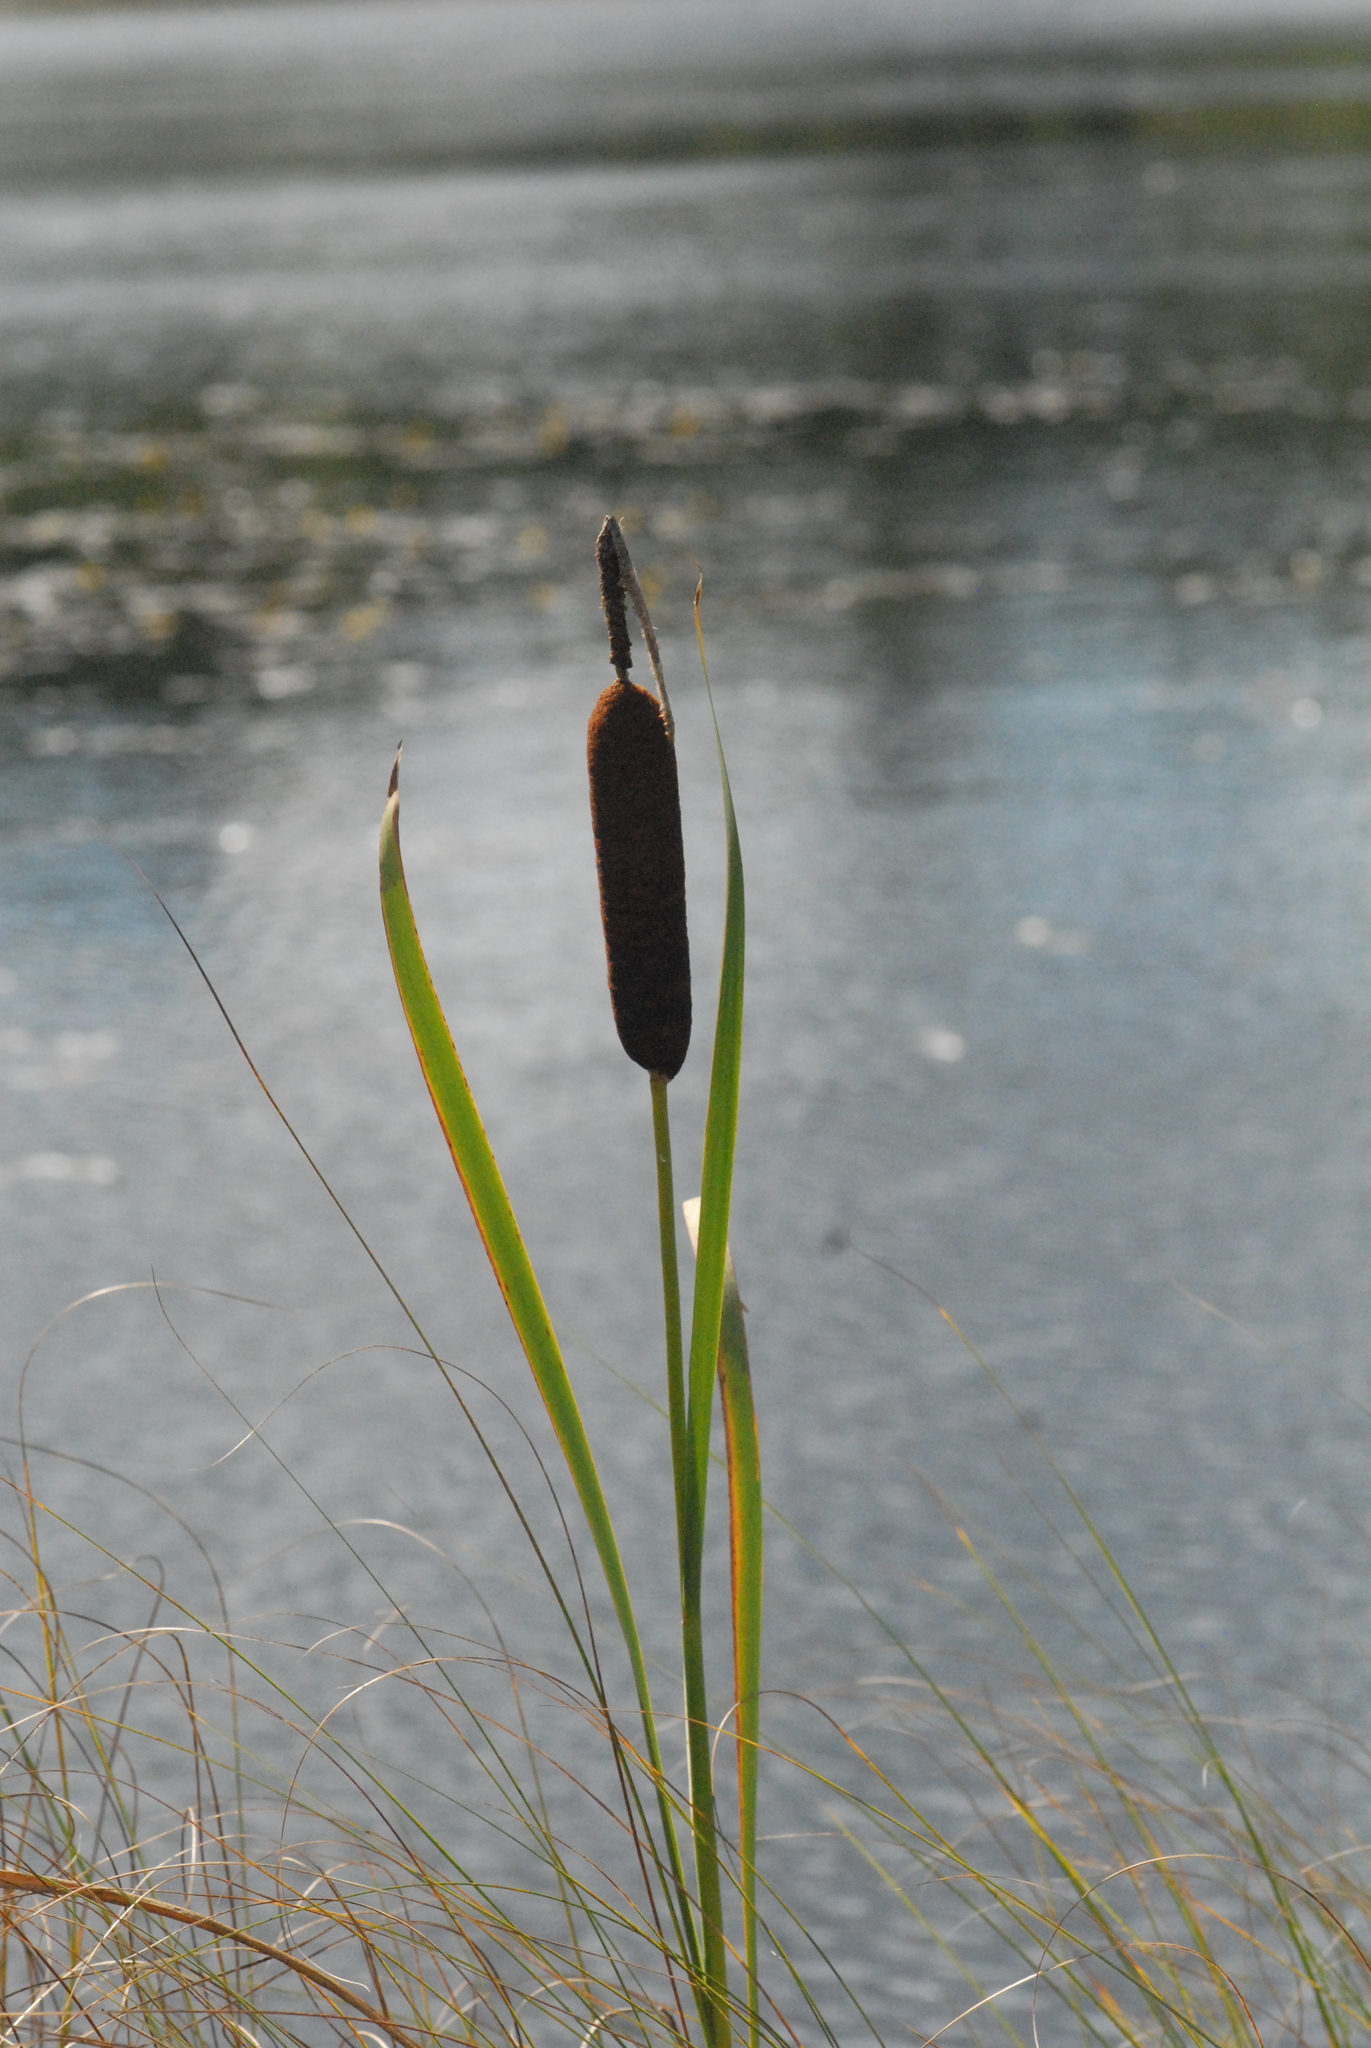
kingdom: Plantae
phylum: Tracheophyta
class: Liliopsida
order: Poales
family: Typhaceae
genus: Typha
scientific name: Typha latifolia
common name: Broadleaf cattail
